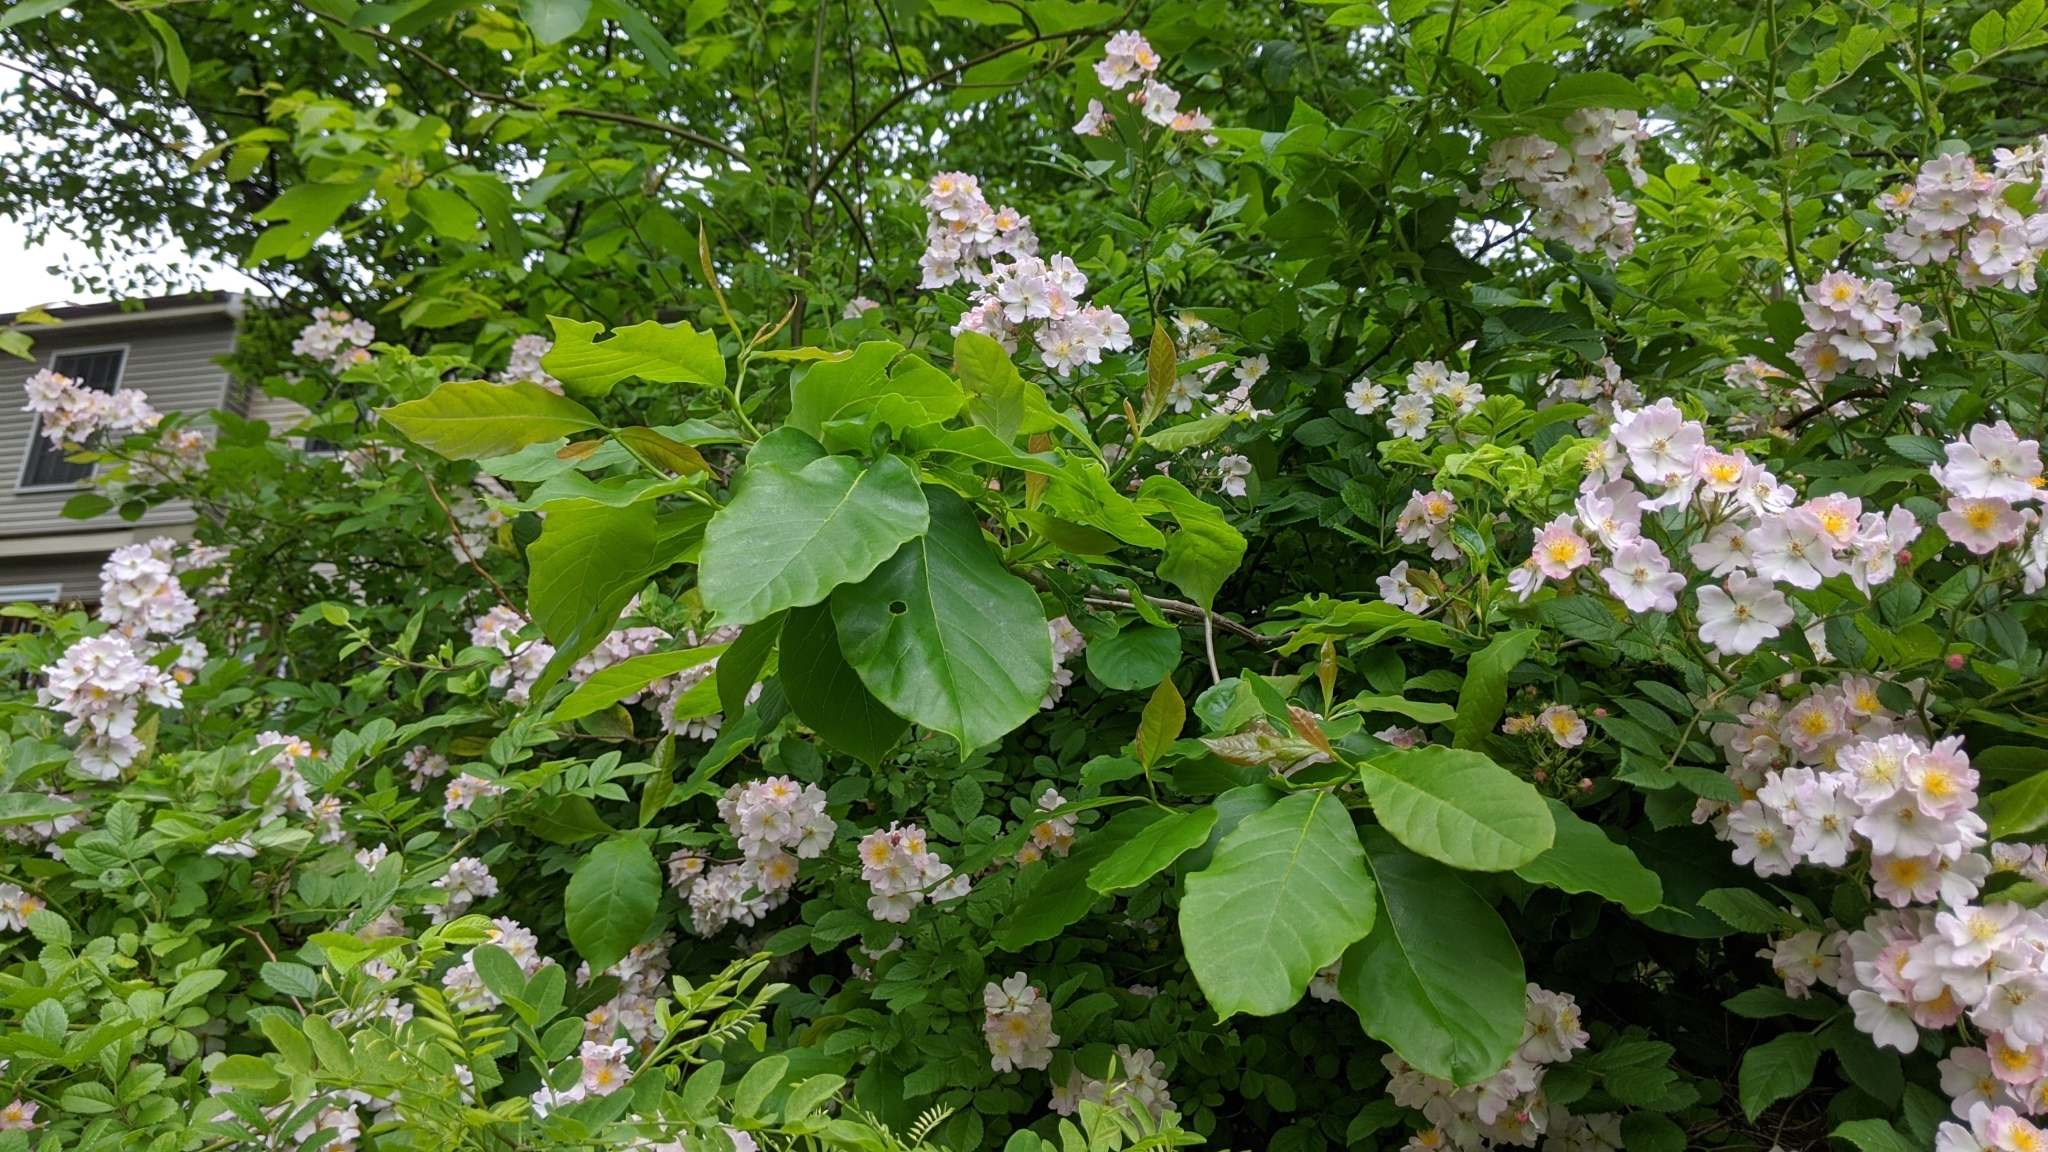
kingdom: Plantae
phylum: Tracheophyta
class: Magnoliopsida
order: Rosales
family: Rosaceae
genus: Rosa
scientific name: Rosa multiflora
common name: Multiflora rose
